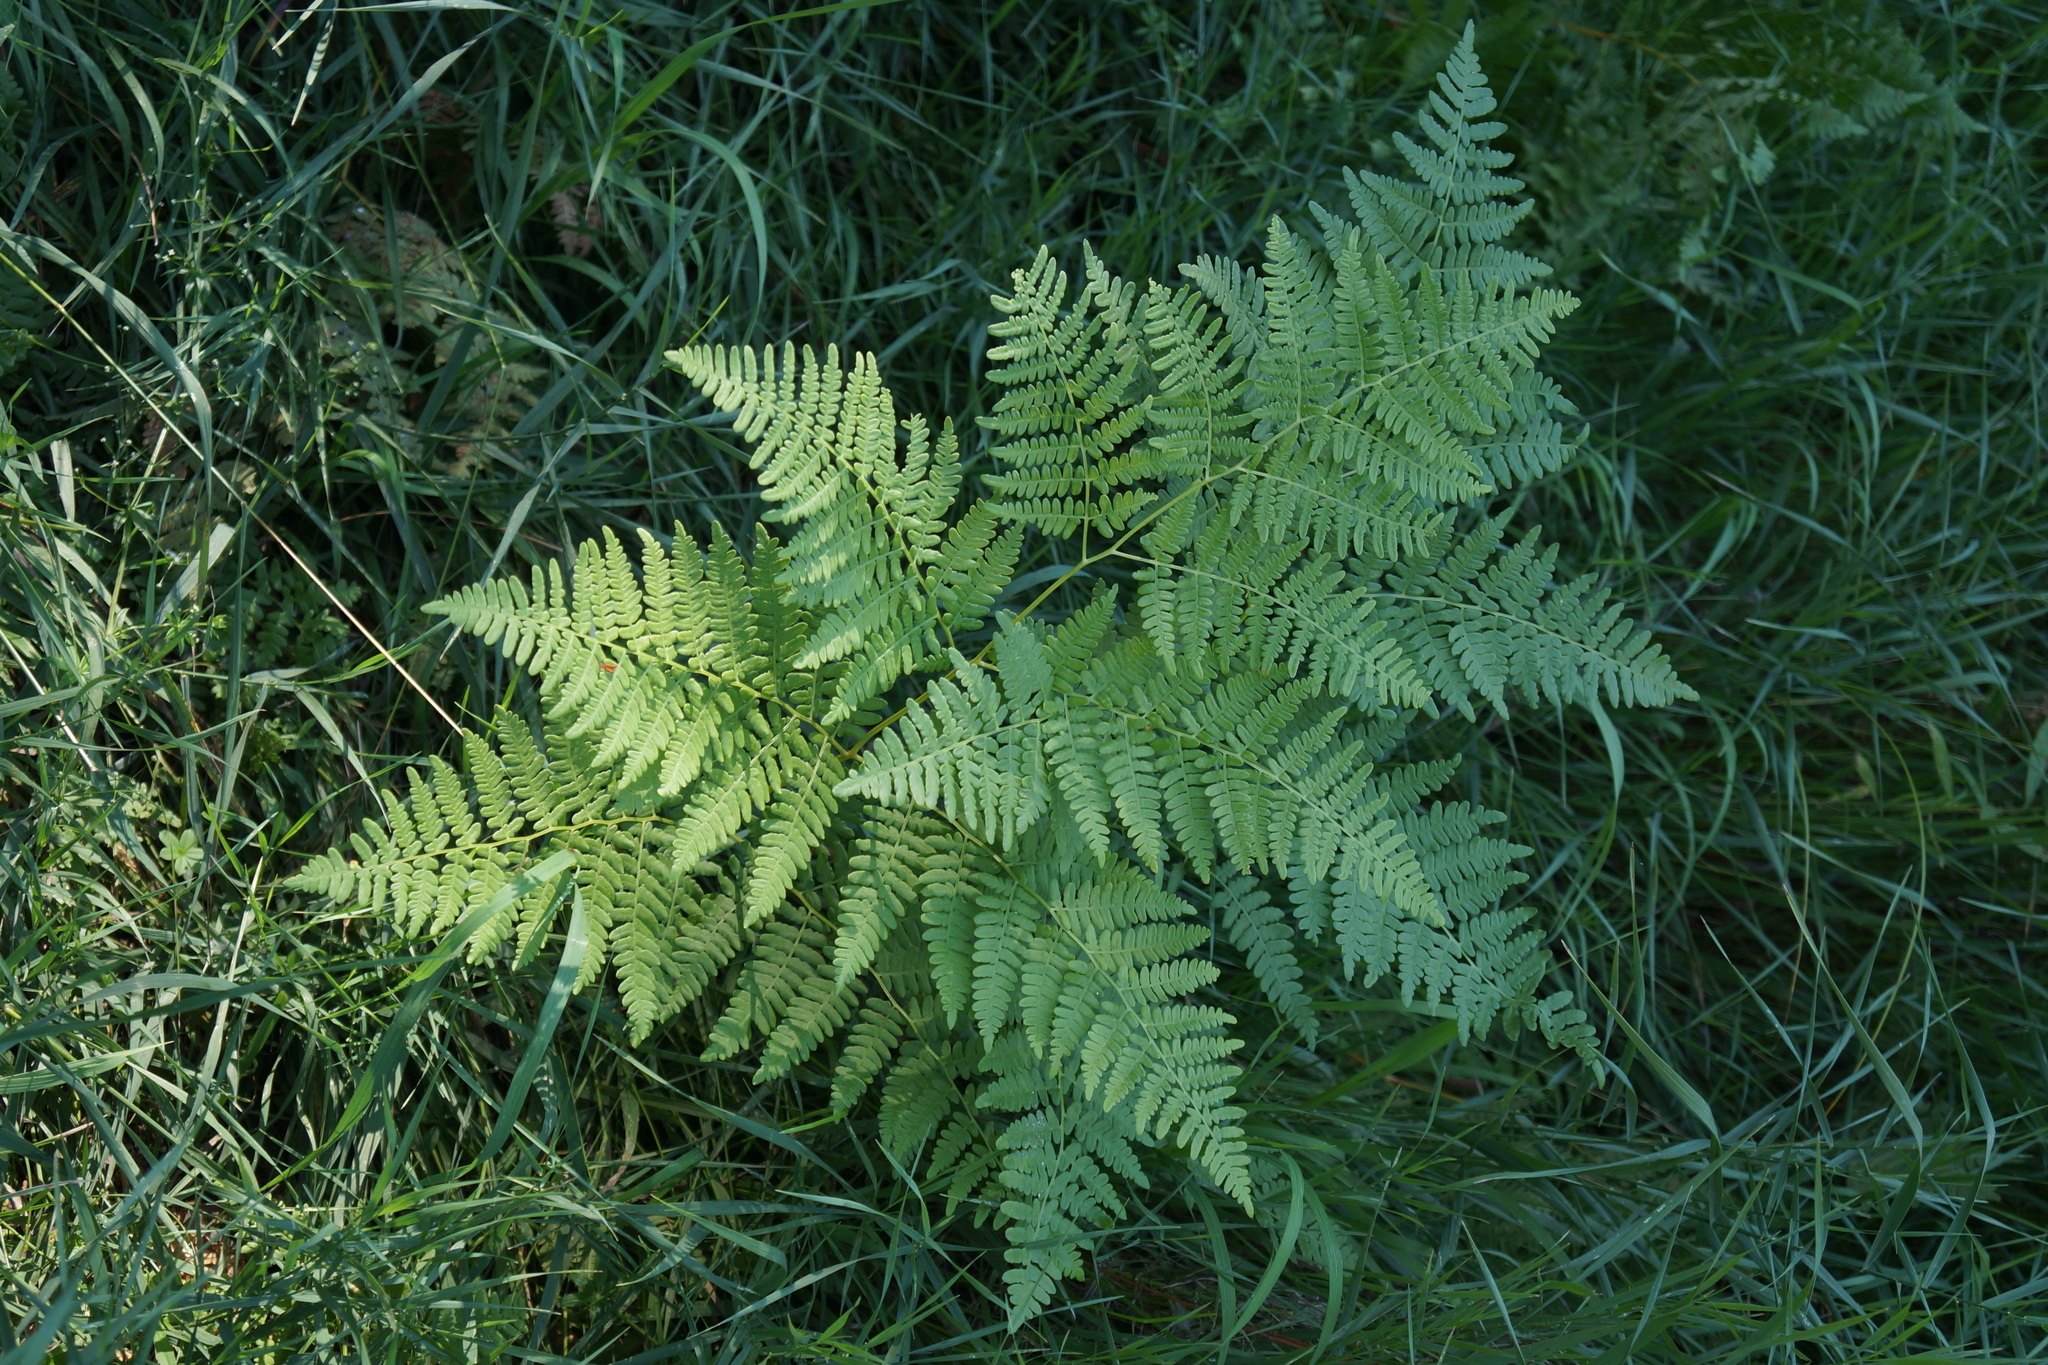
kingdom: Plantae
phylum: Tracheophyta
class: Polypodiopsida
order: Polypodiales
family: Dennstaedtiaceae
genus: Pteridium
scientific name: Pteridium aquilinum
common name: Bracken
